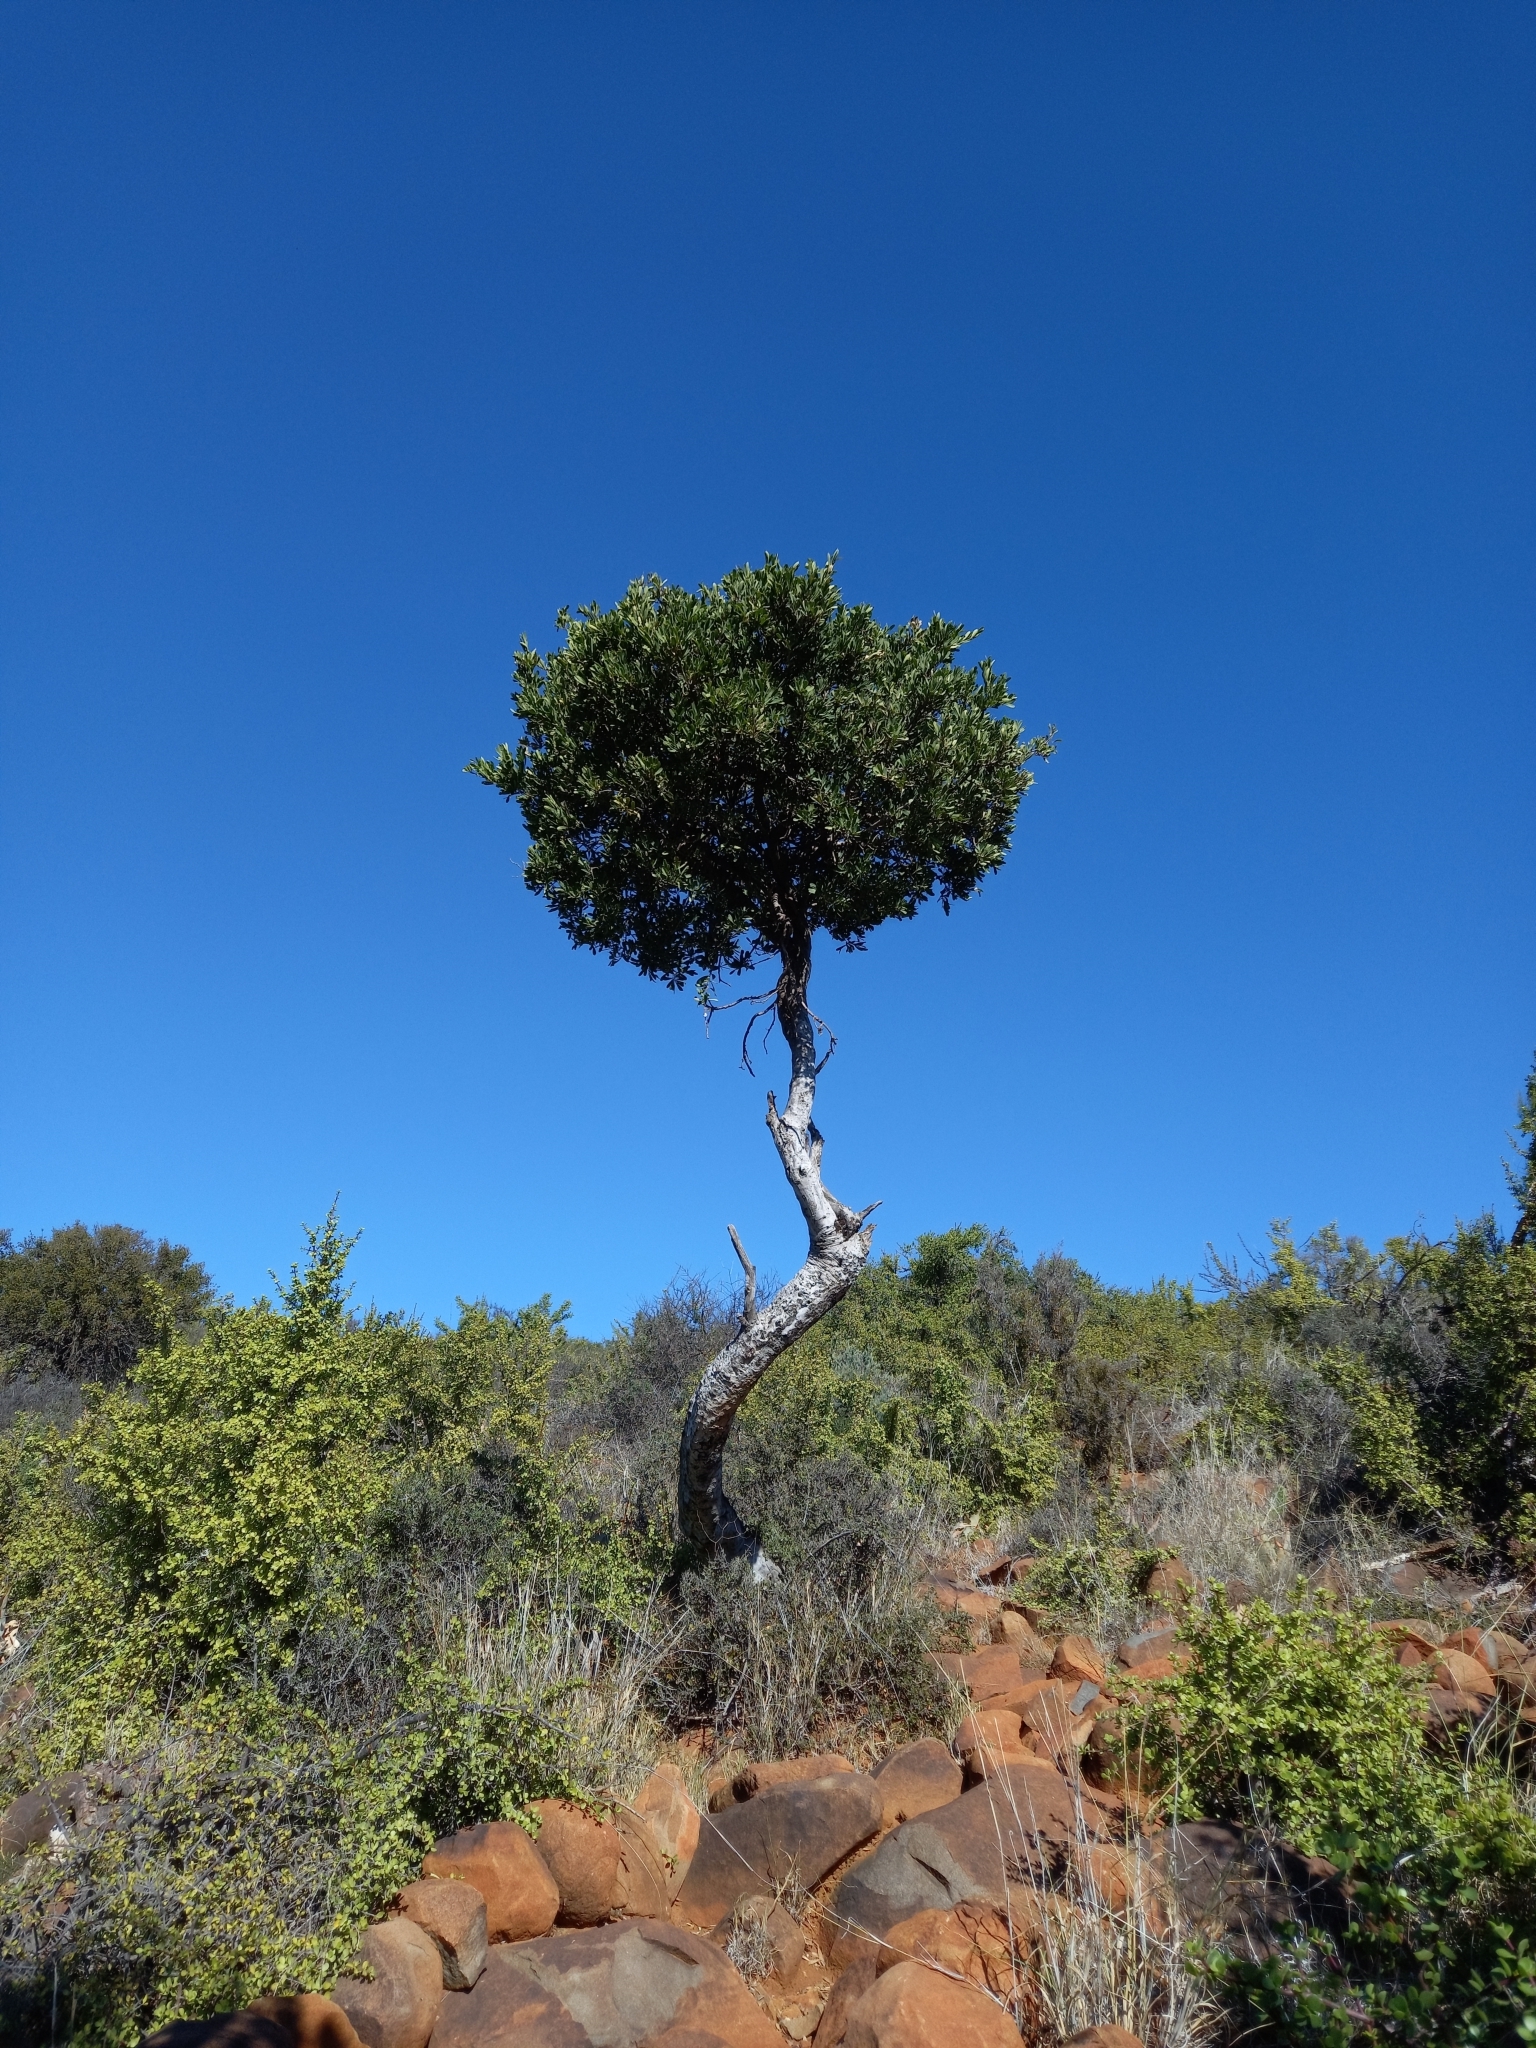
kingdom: Plantae
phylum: Tracheophyta
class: Magnoliopsida
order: Brassicales
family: Capparaceae
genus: Boscia
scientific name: Boscia oleoides
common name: Karoo shepherd tree
